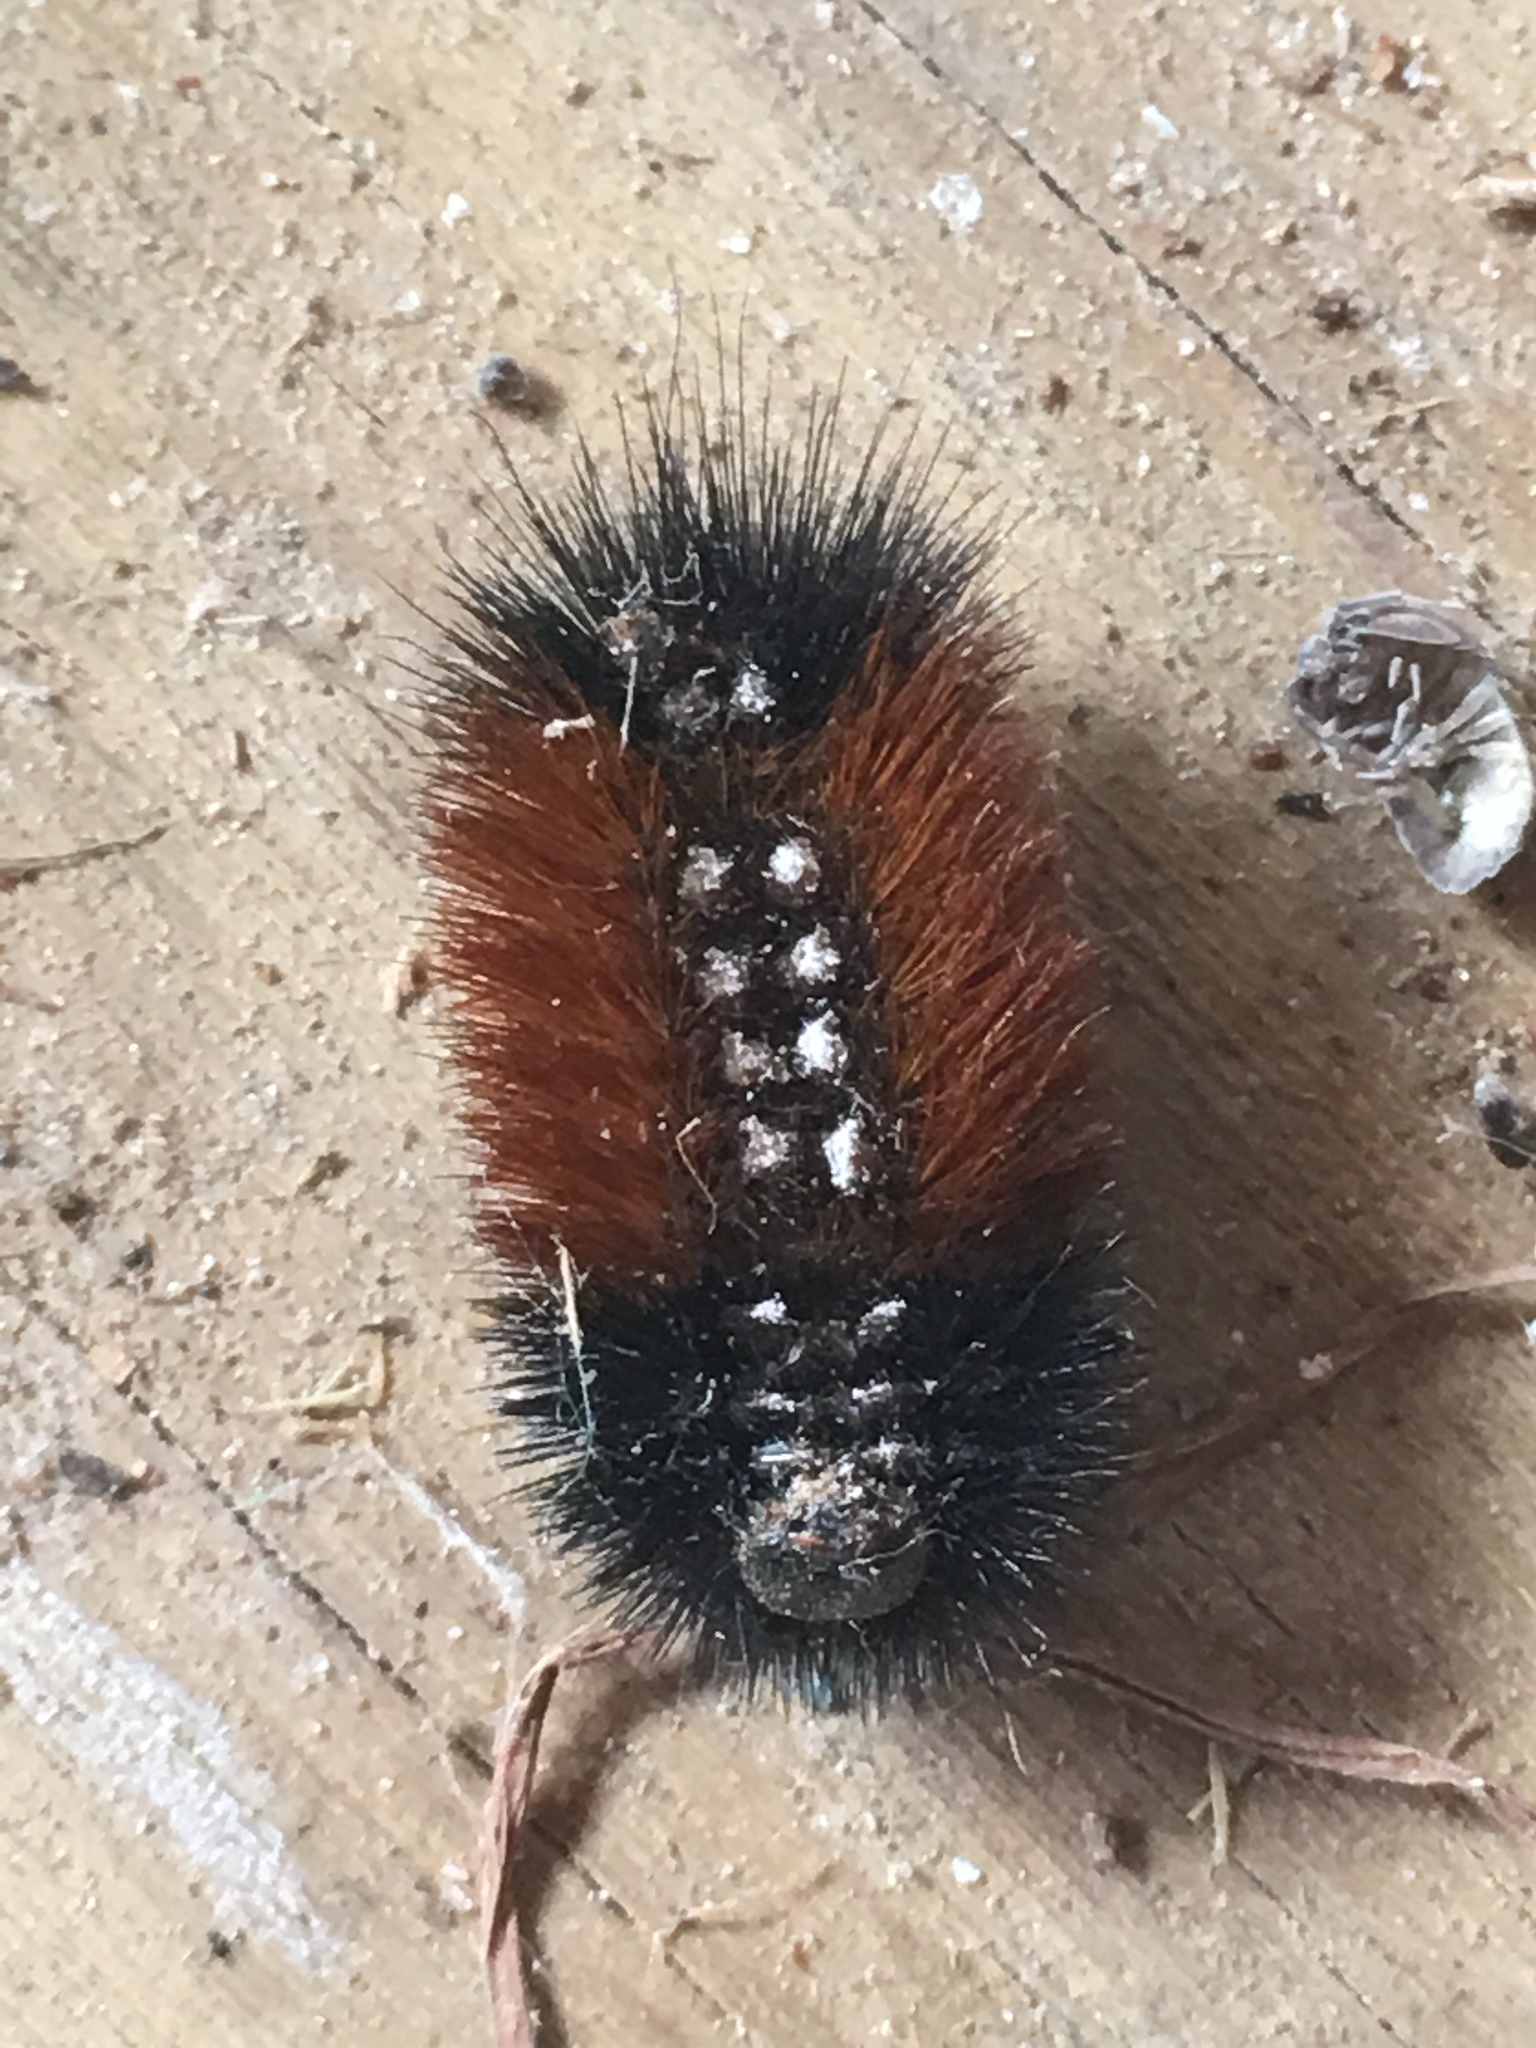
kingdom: Animalia
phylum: Arthropoda
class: Insecta
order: Lepidoptera
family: Erebidae
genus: Pyrrharctia
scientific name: Pyrrharctia isabella
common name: Isabella tiger moth
